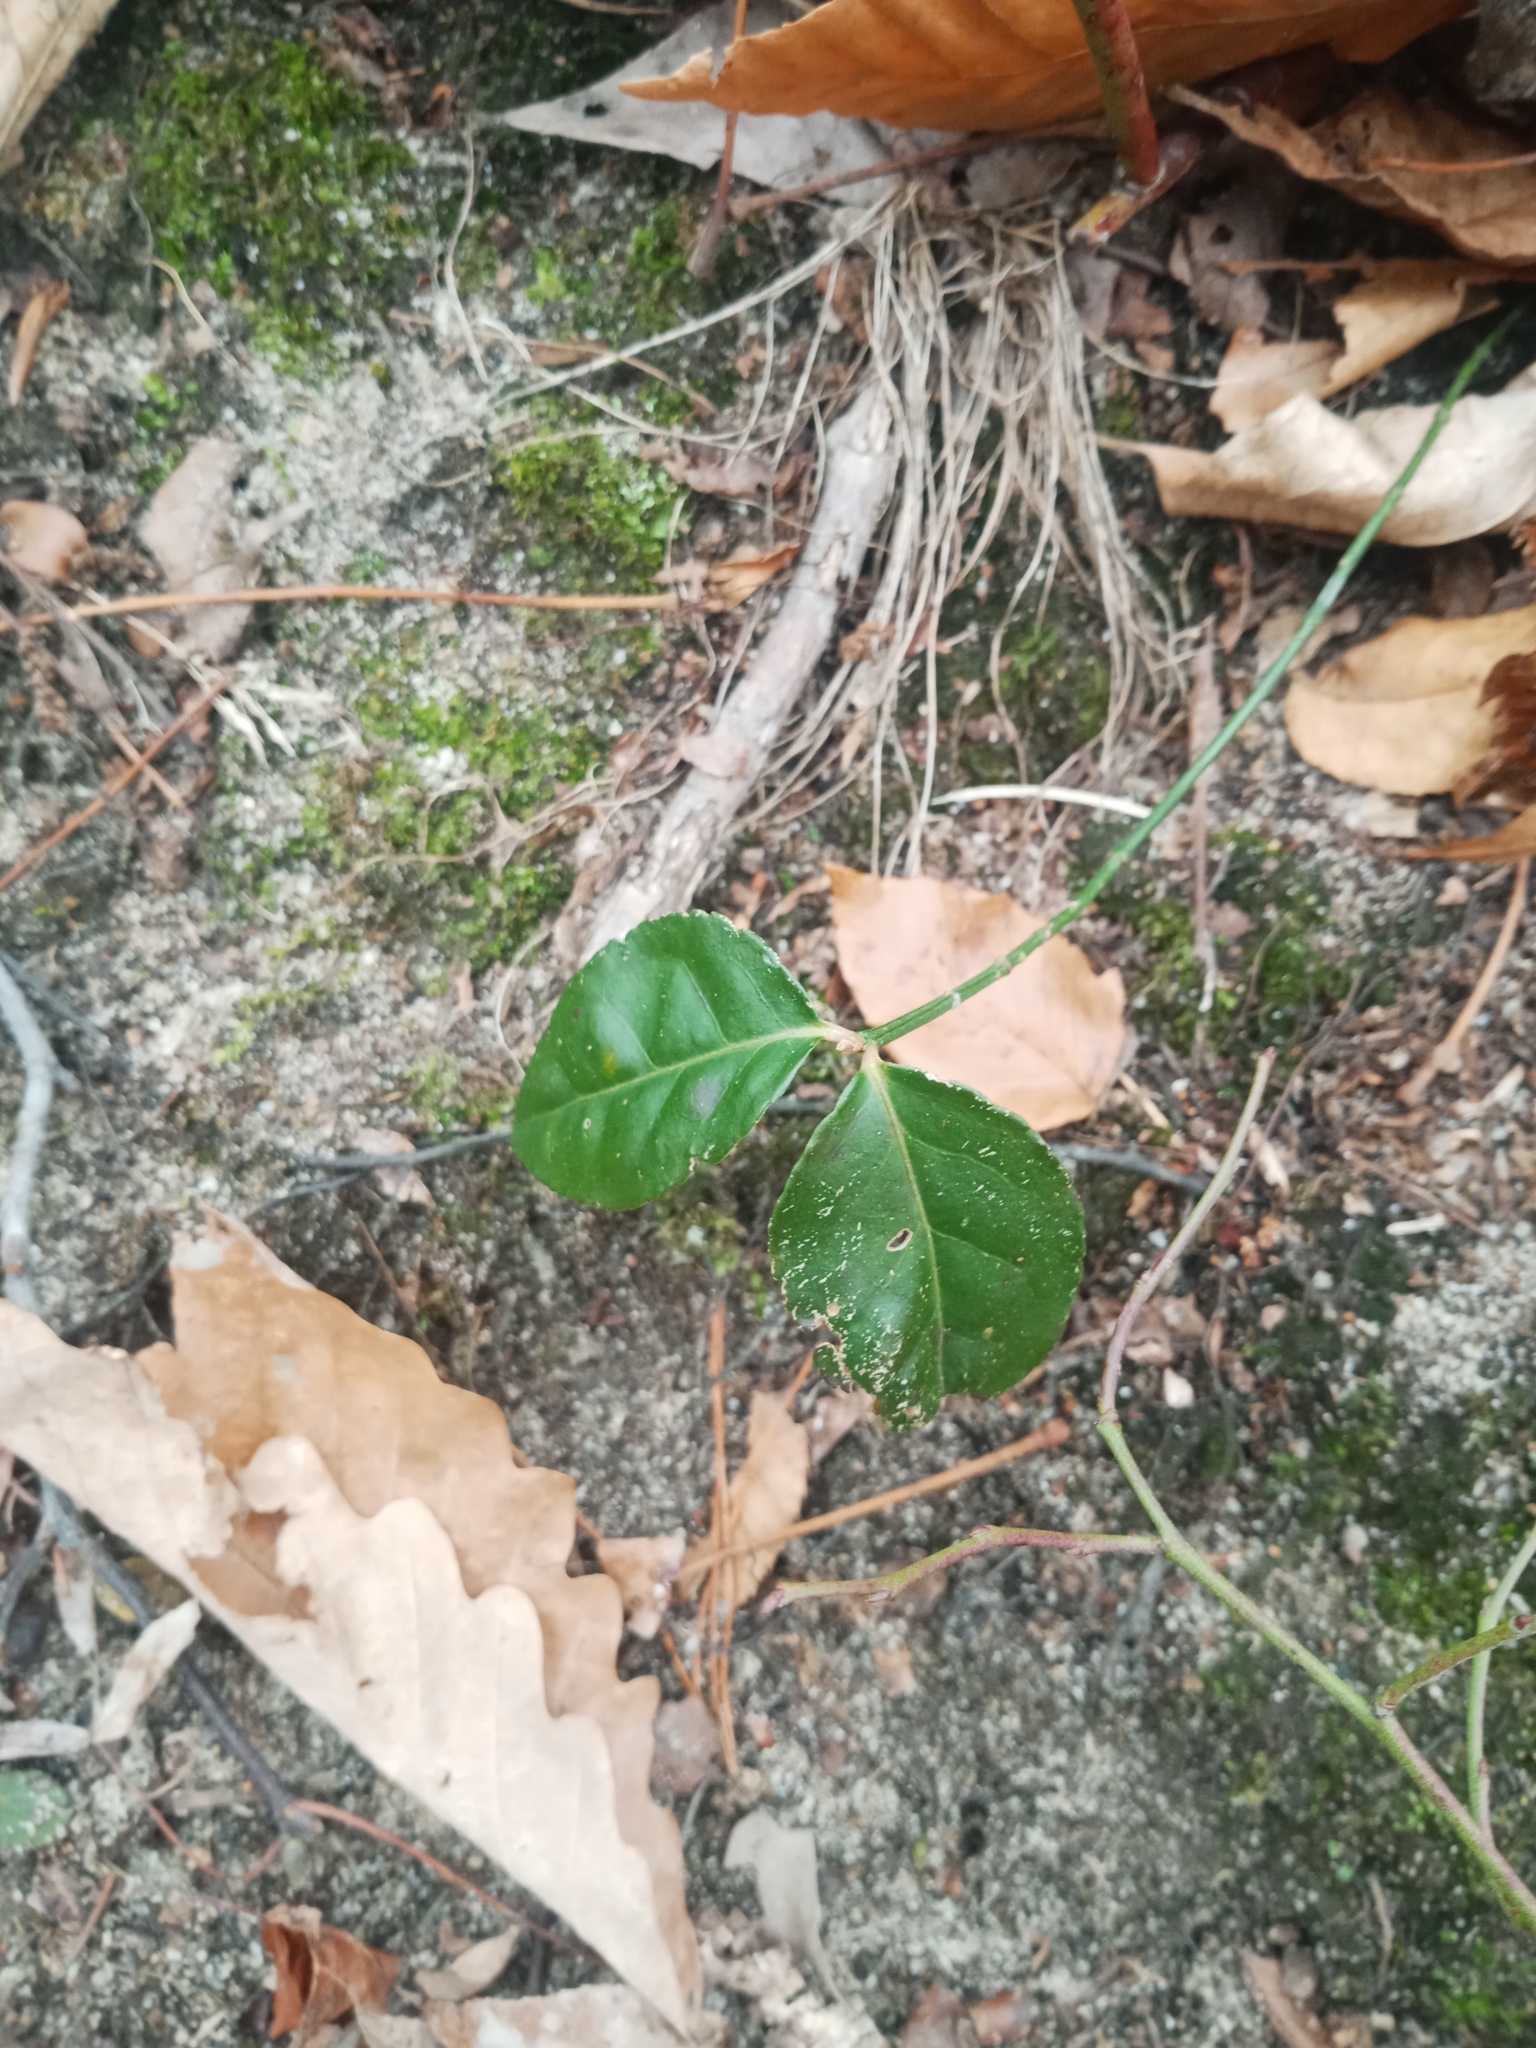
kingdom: Plantae
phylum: Tracheophyta
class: Magnoliopsida
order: Celastrales
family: Celastraceae
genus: Euonymus
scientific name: Euonymus fortunei
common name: Climbing euonymus
